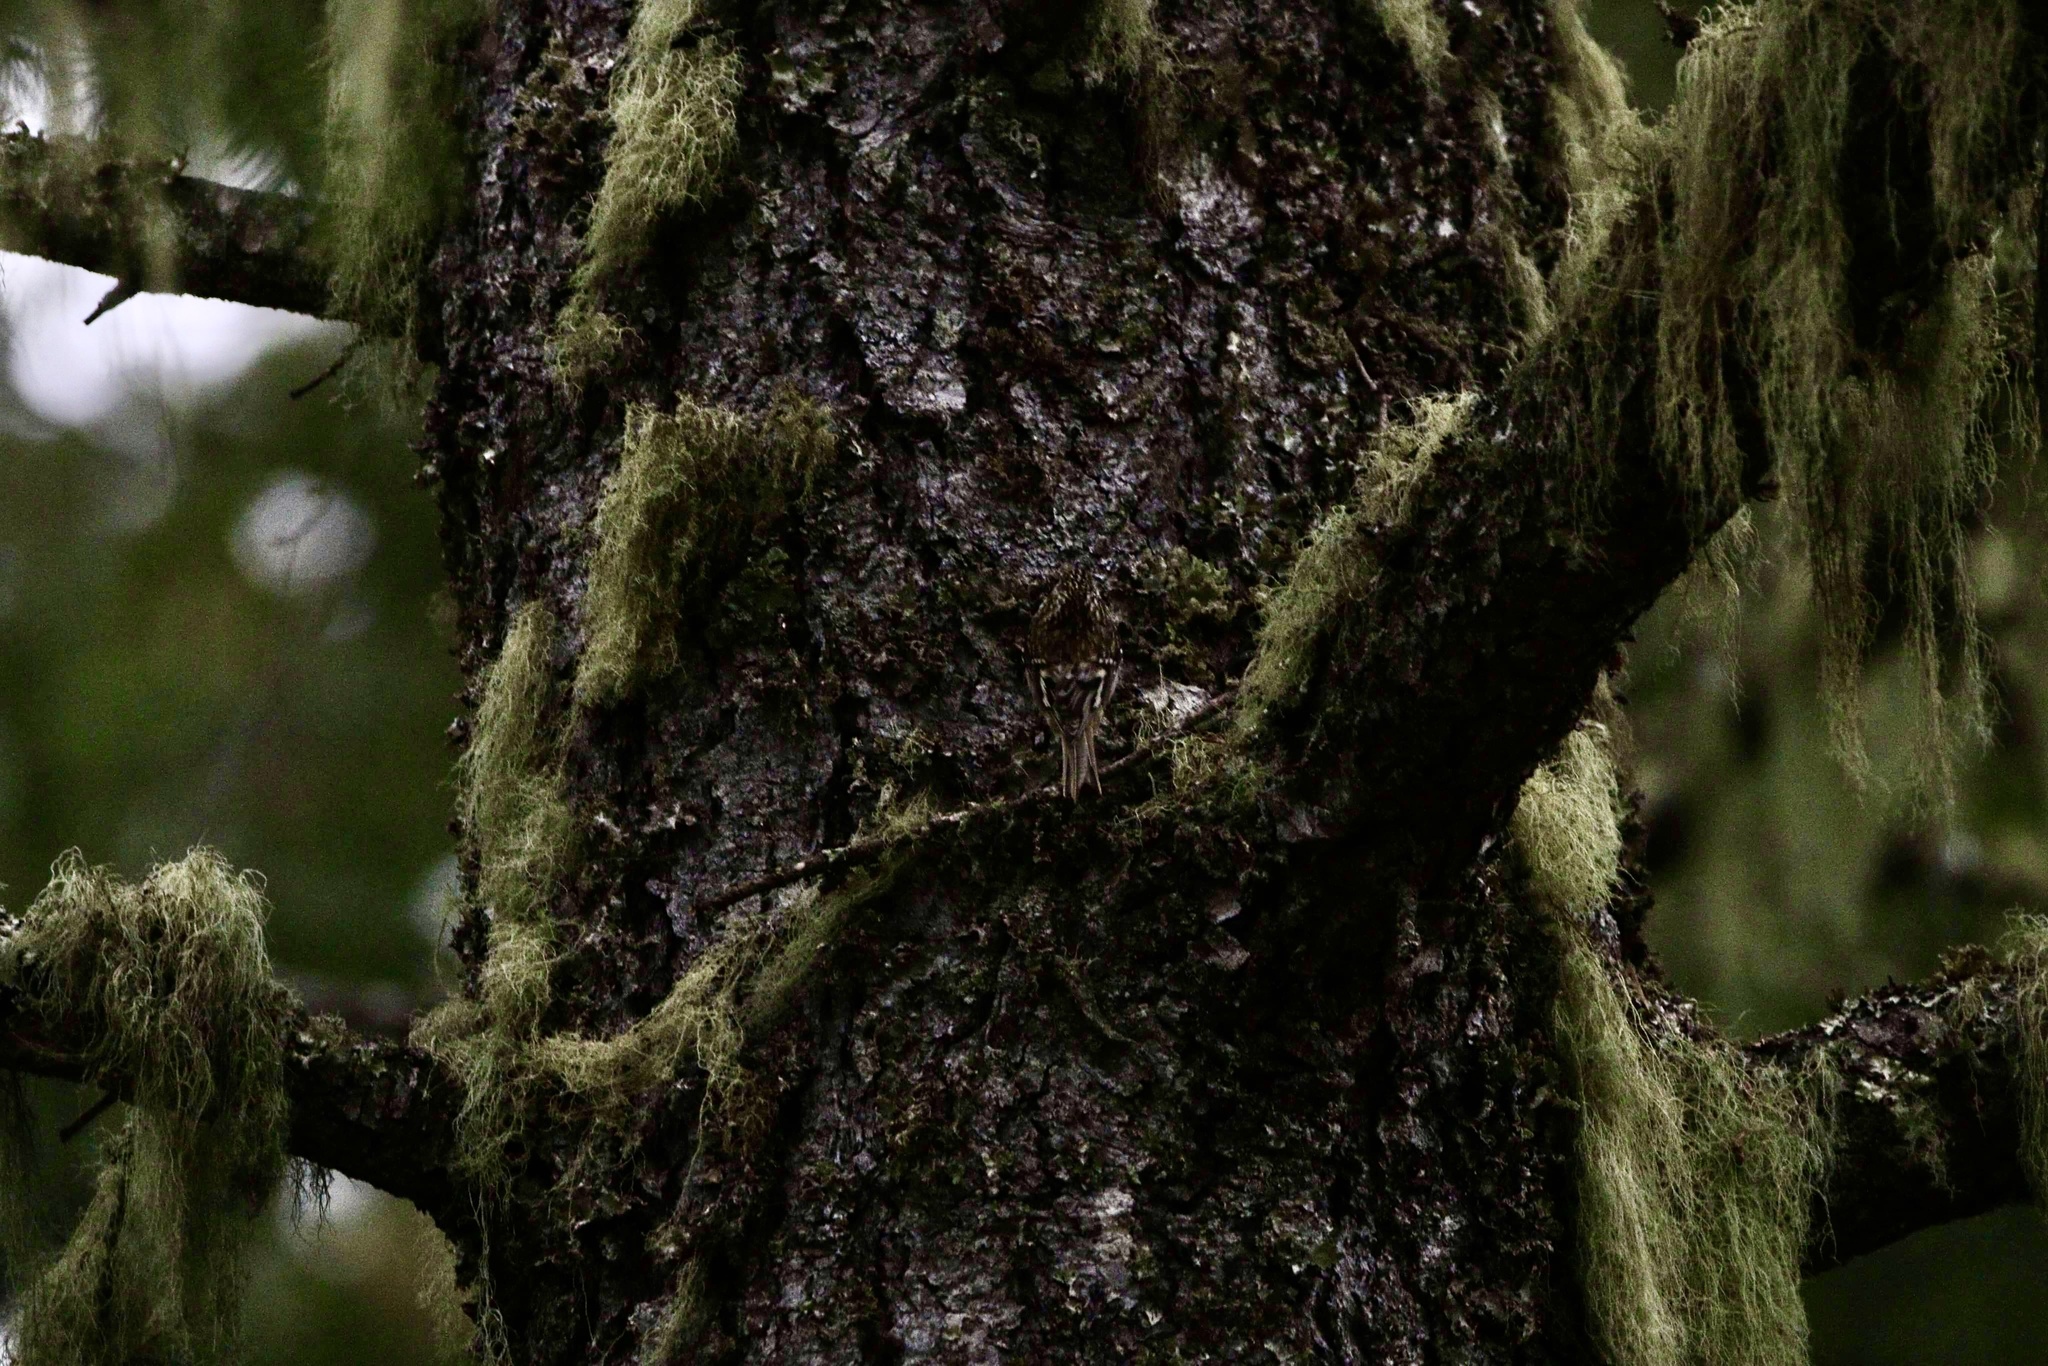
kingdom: Animalia
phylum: Chordata
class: Aves
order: Passeriformes
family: Certhiidae
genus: Certhia
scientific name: Certhia americana
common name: Brown creeper
